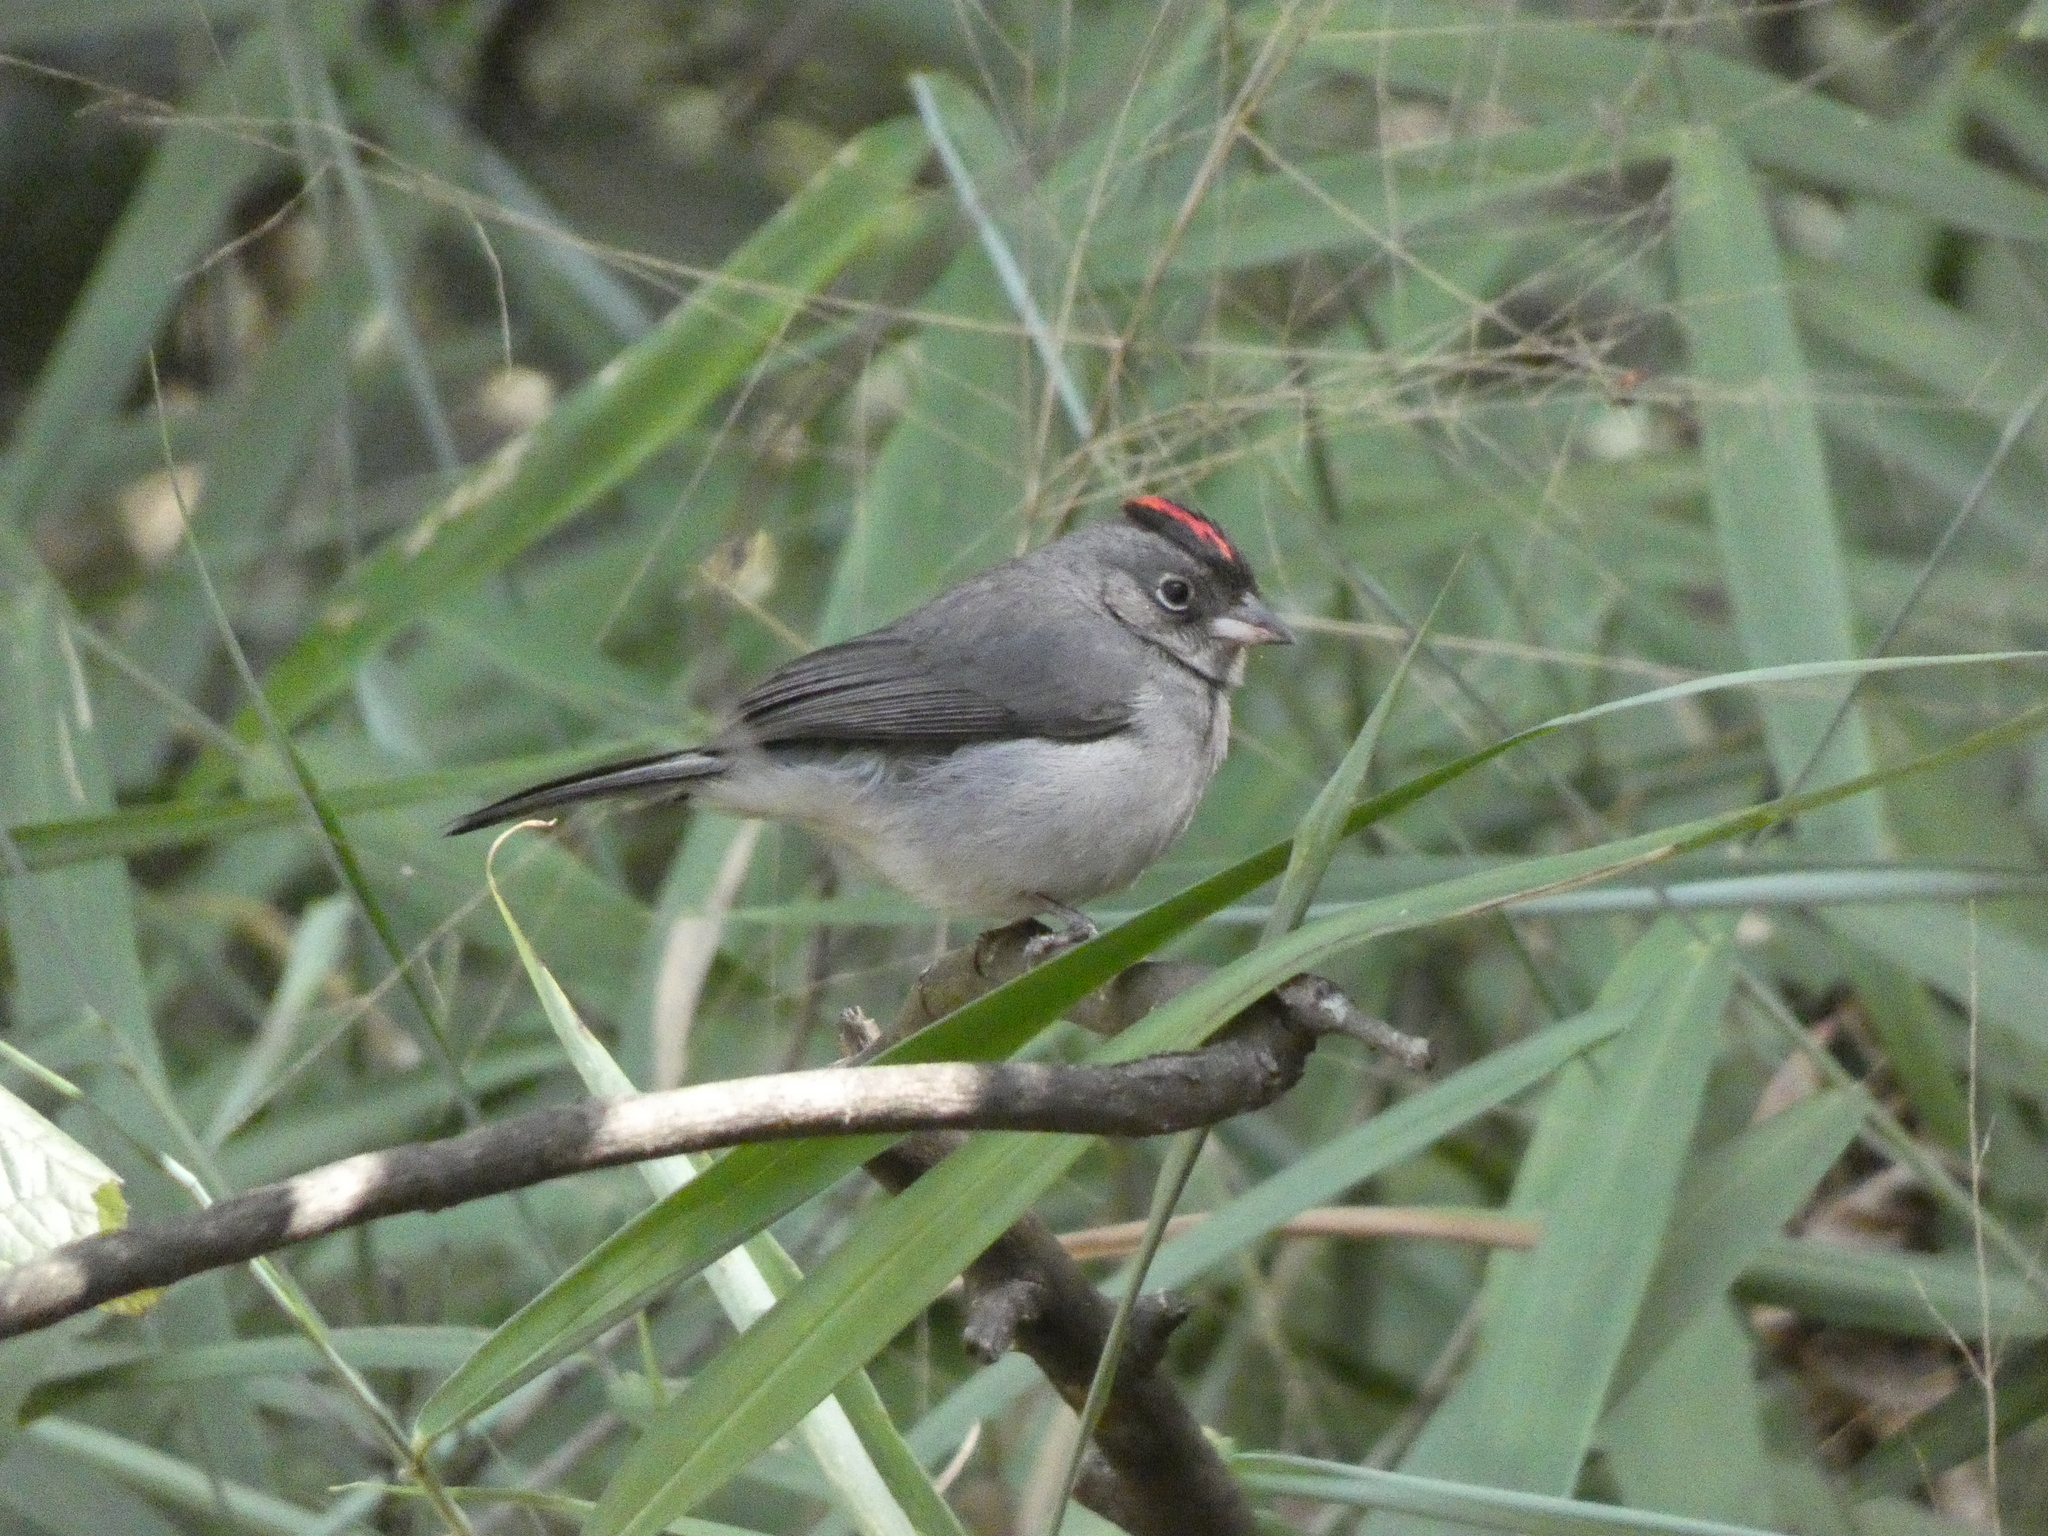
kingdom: Animalia
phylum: Chordata
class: Aves
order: Passeriformes
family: Thraupidae
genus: Coryphospingus
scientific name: Coryphospingus pileatus
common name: Grey pileated finch
